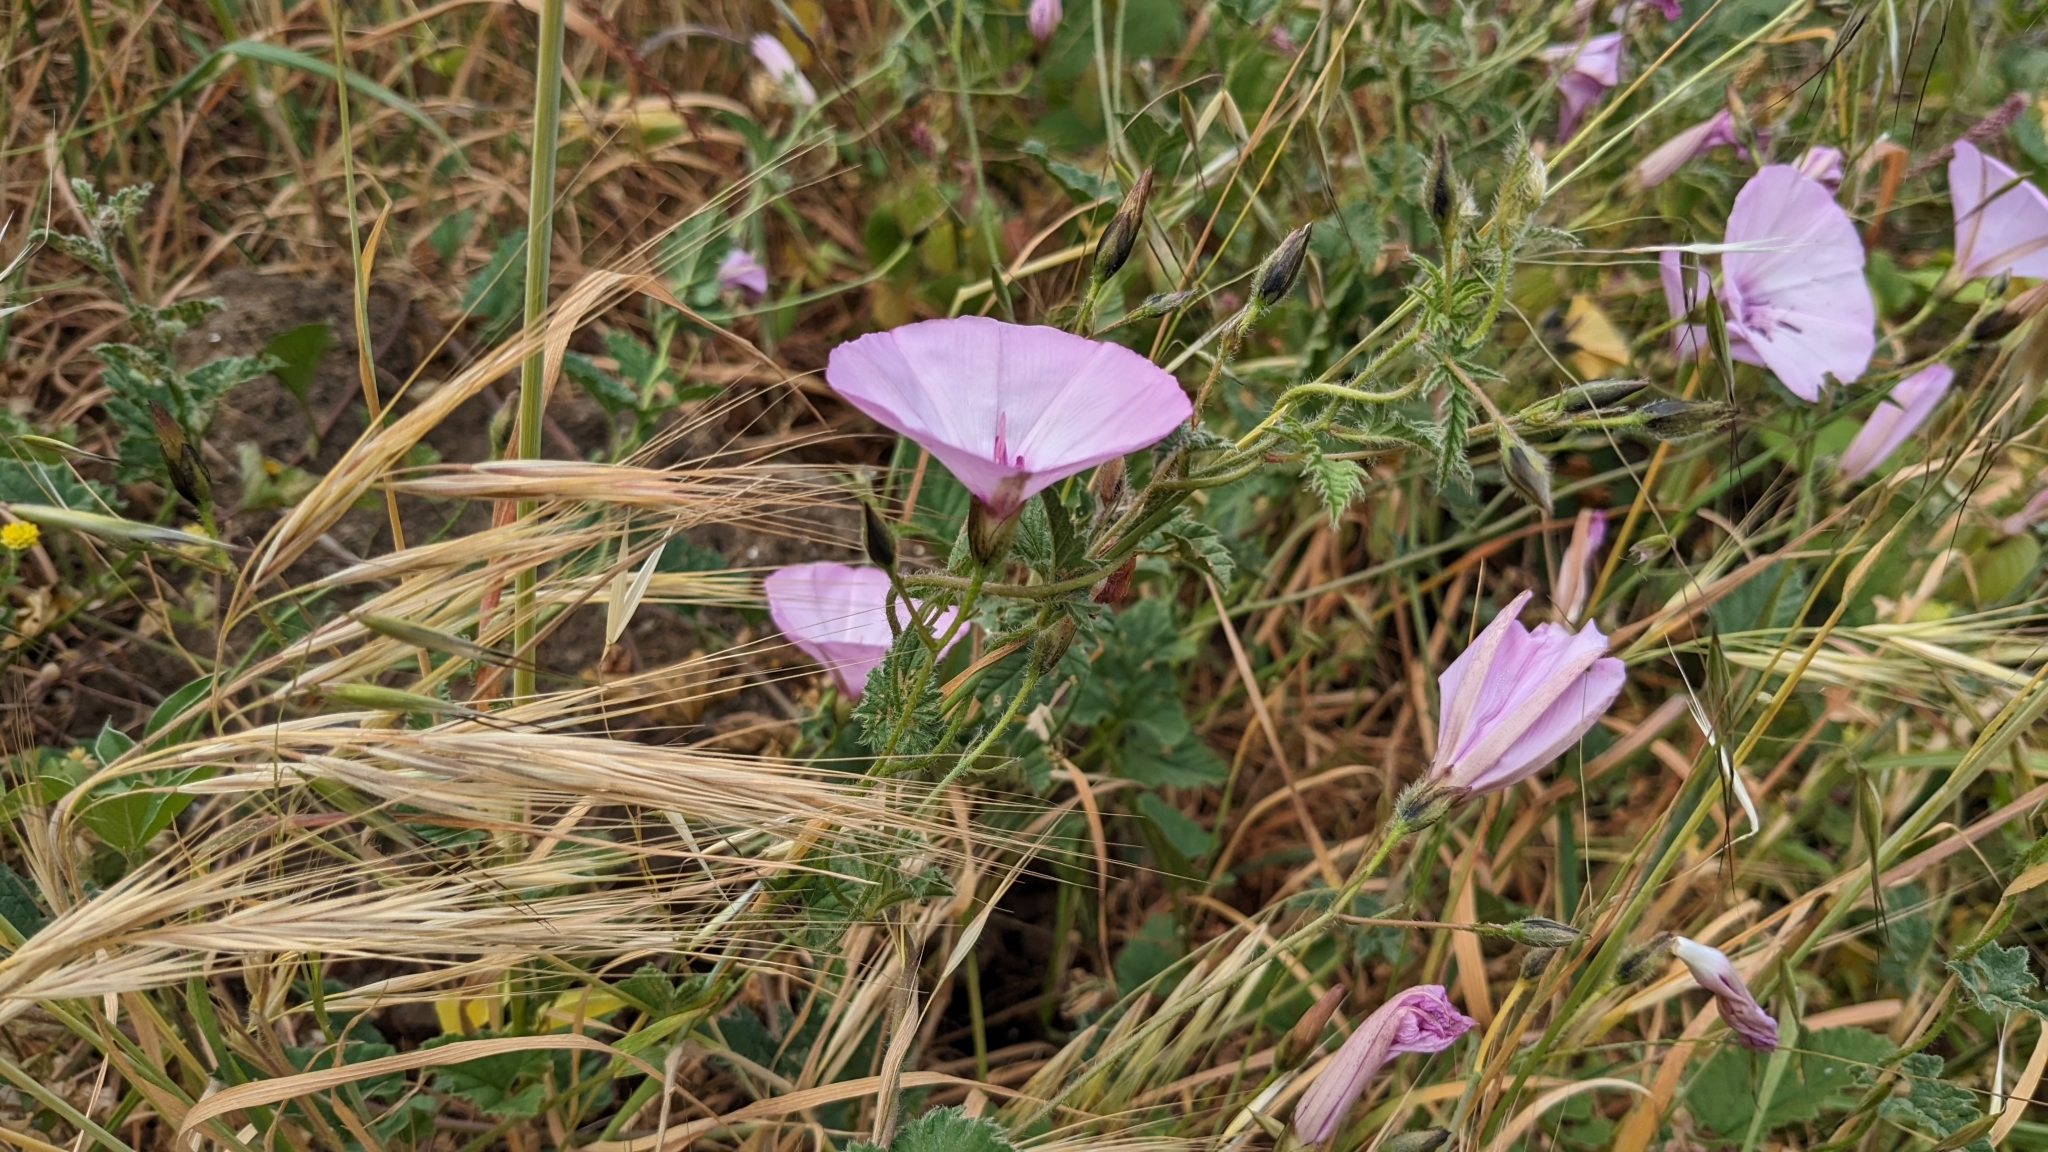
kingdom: Plantae
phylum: Tracheophyta
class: Magnoliopsida
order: Solanales
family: Convolvulaceae
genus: Convolvulus
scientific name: Convolvulus althaeoides
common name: Mallow bindweed
